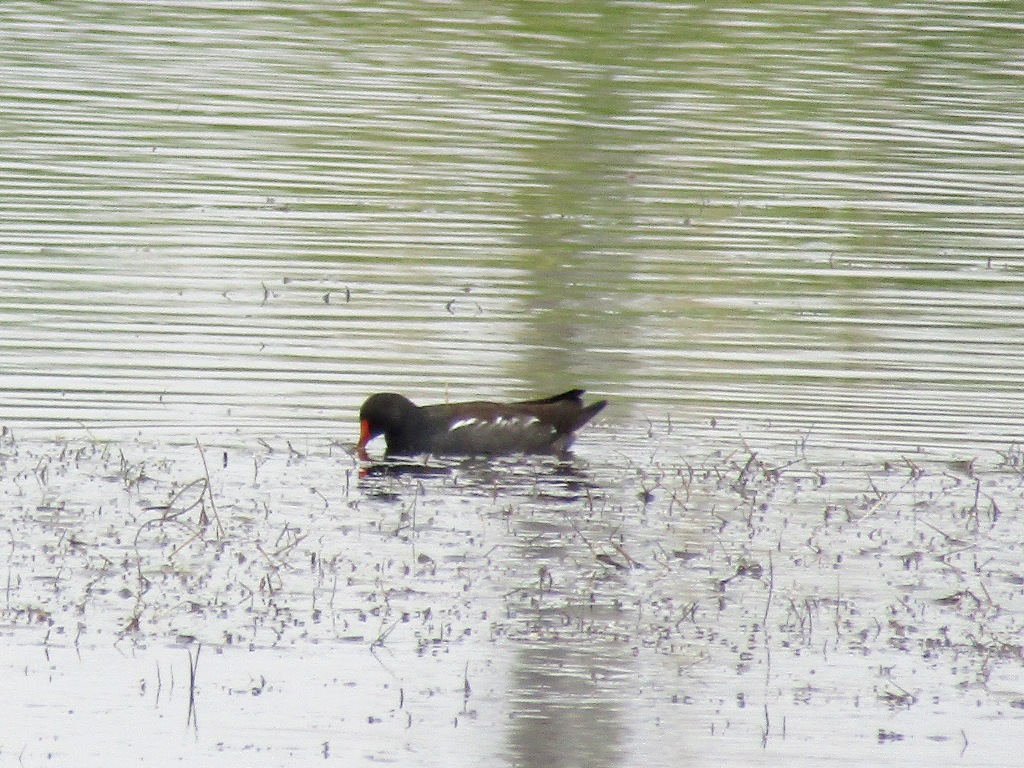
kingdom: Animalia
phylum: Chordata
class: Aves
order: Gruiformes
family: Rallidae
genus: Gallinula
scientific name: Gallinula chloropus
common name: Common moorhen
